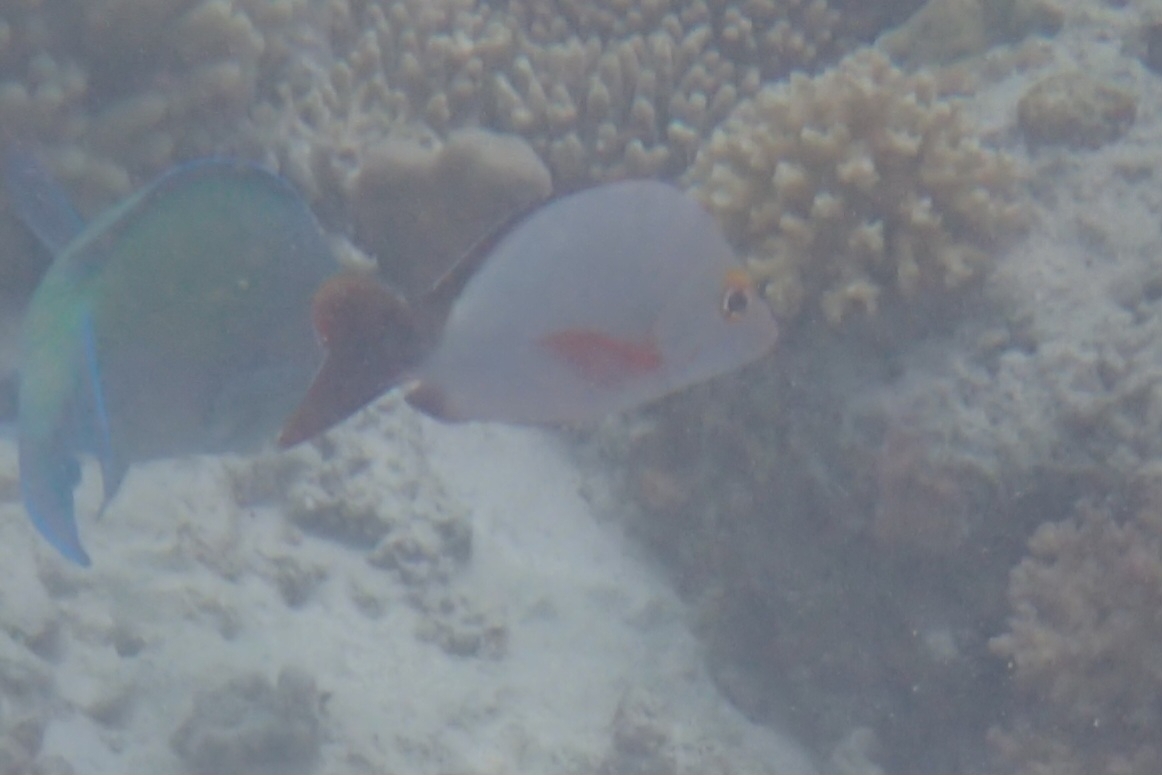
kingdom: Animalia
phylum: Chordata
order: Perciformes
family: Lutjanidae
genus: Lutjanus
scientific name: Lutjanus gibbus
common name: Humpback snapper
